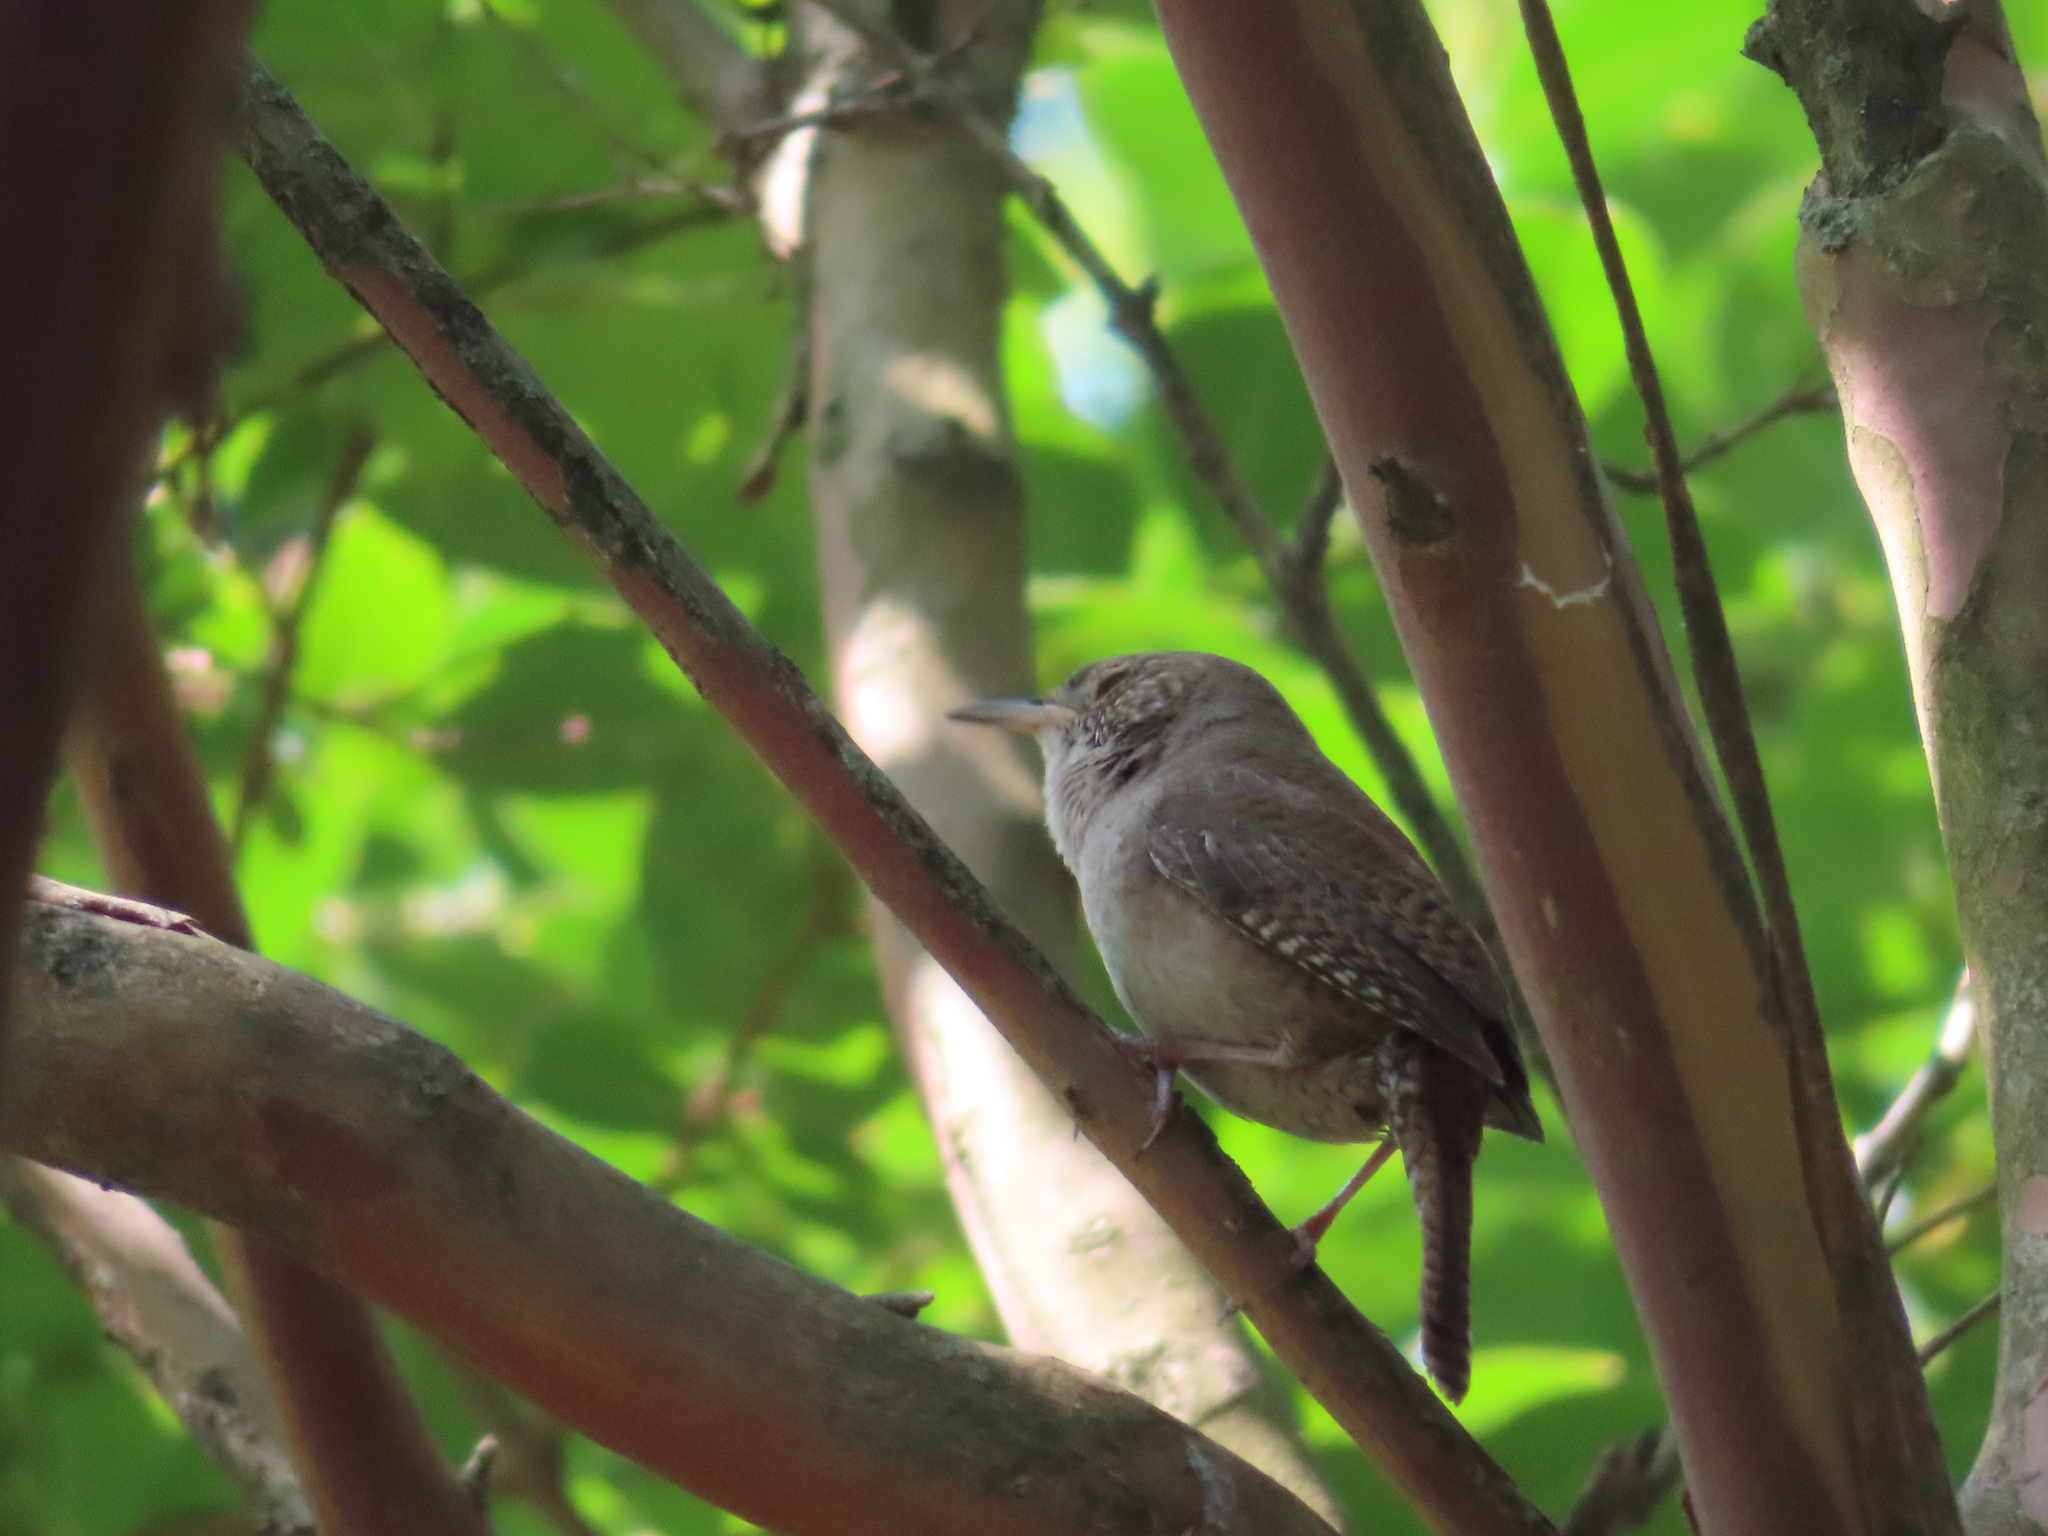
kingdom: Animalia
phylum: Chordata
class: Aves
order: Passeriformes
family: Troglodytidae
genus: Troglodytes
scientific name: Troglodytes aedon
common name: House wren
